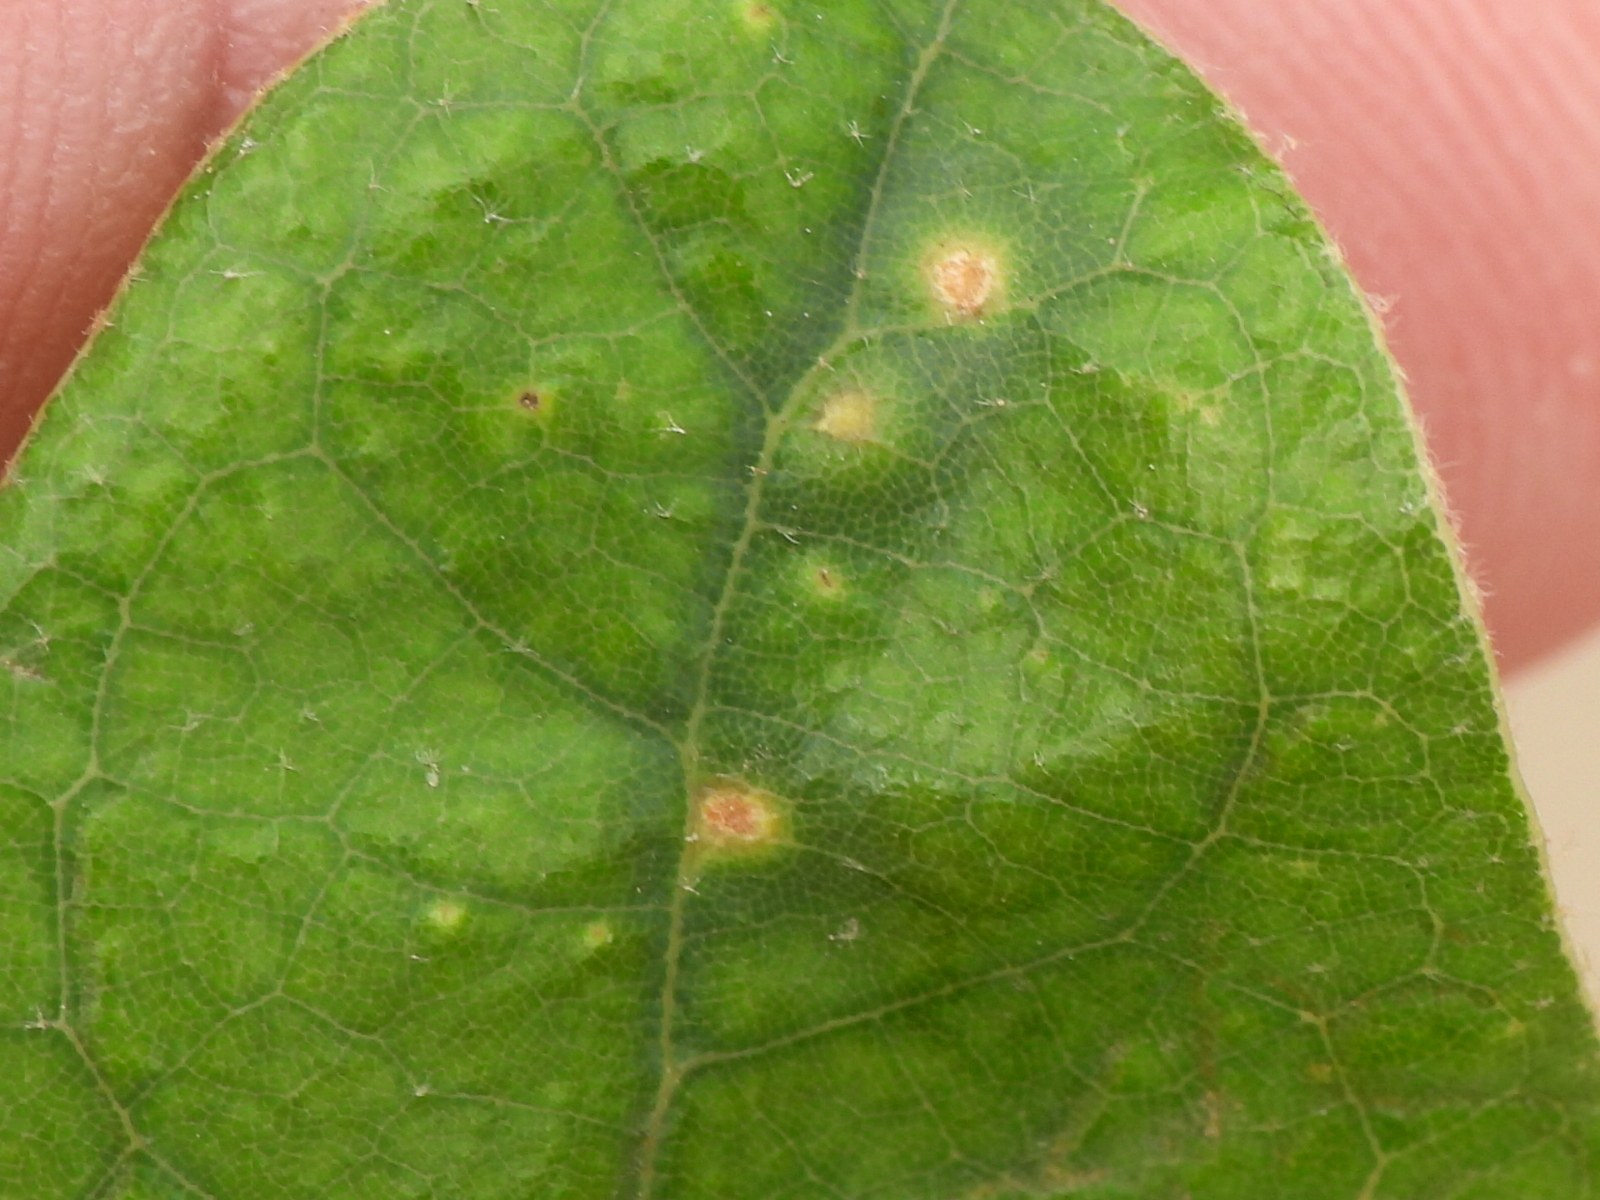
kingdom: Animalia
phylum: Arthropoda
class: Insecta
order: Hymenoptera
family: Cynipidae
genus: Neuroterus
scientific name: Neuroterus
